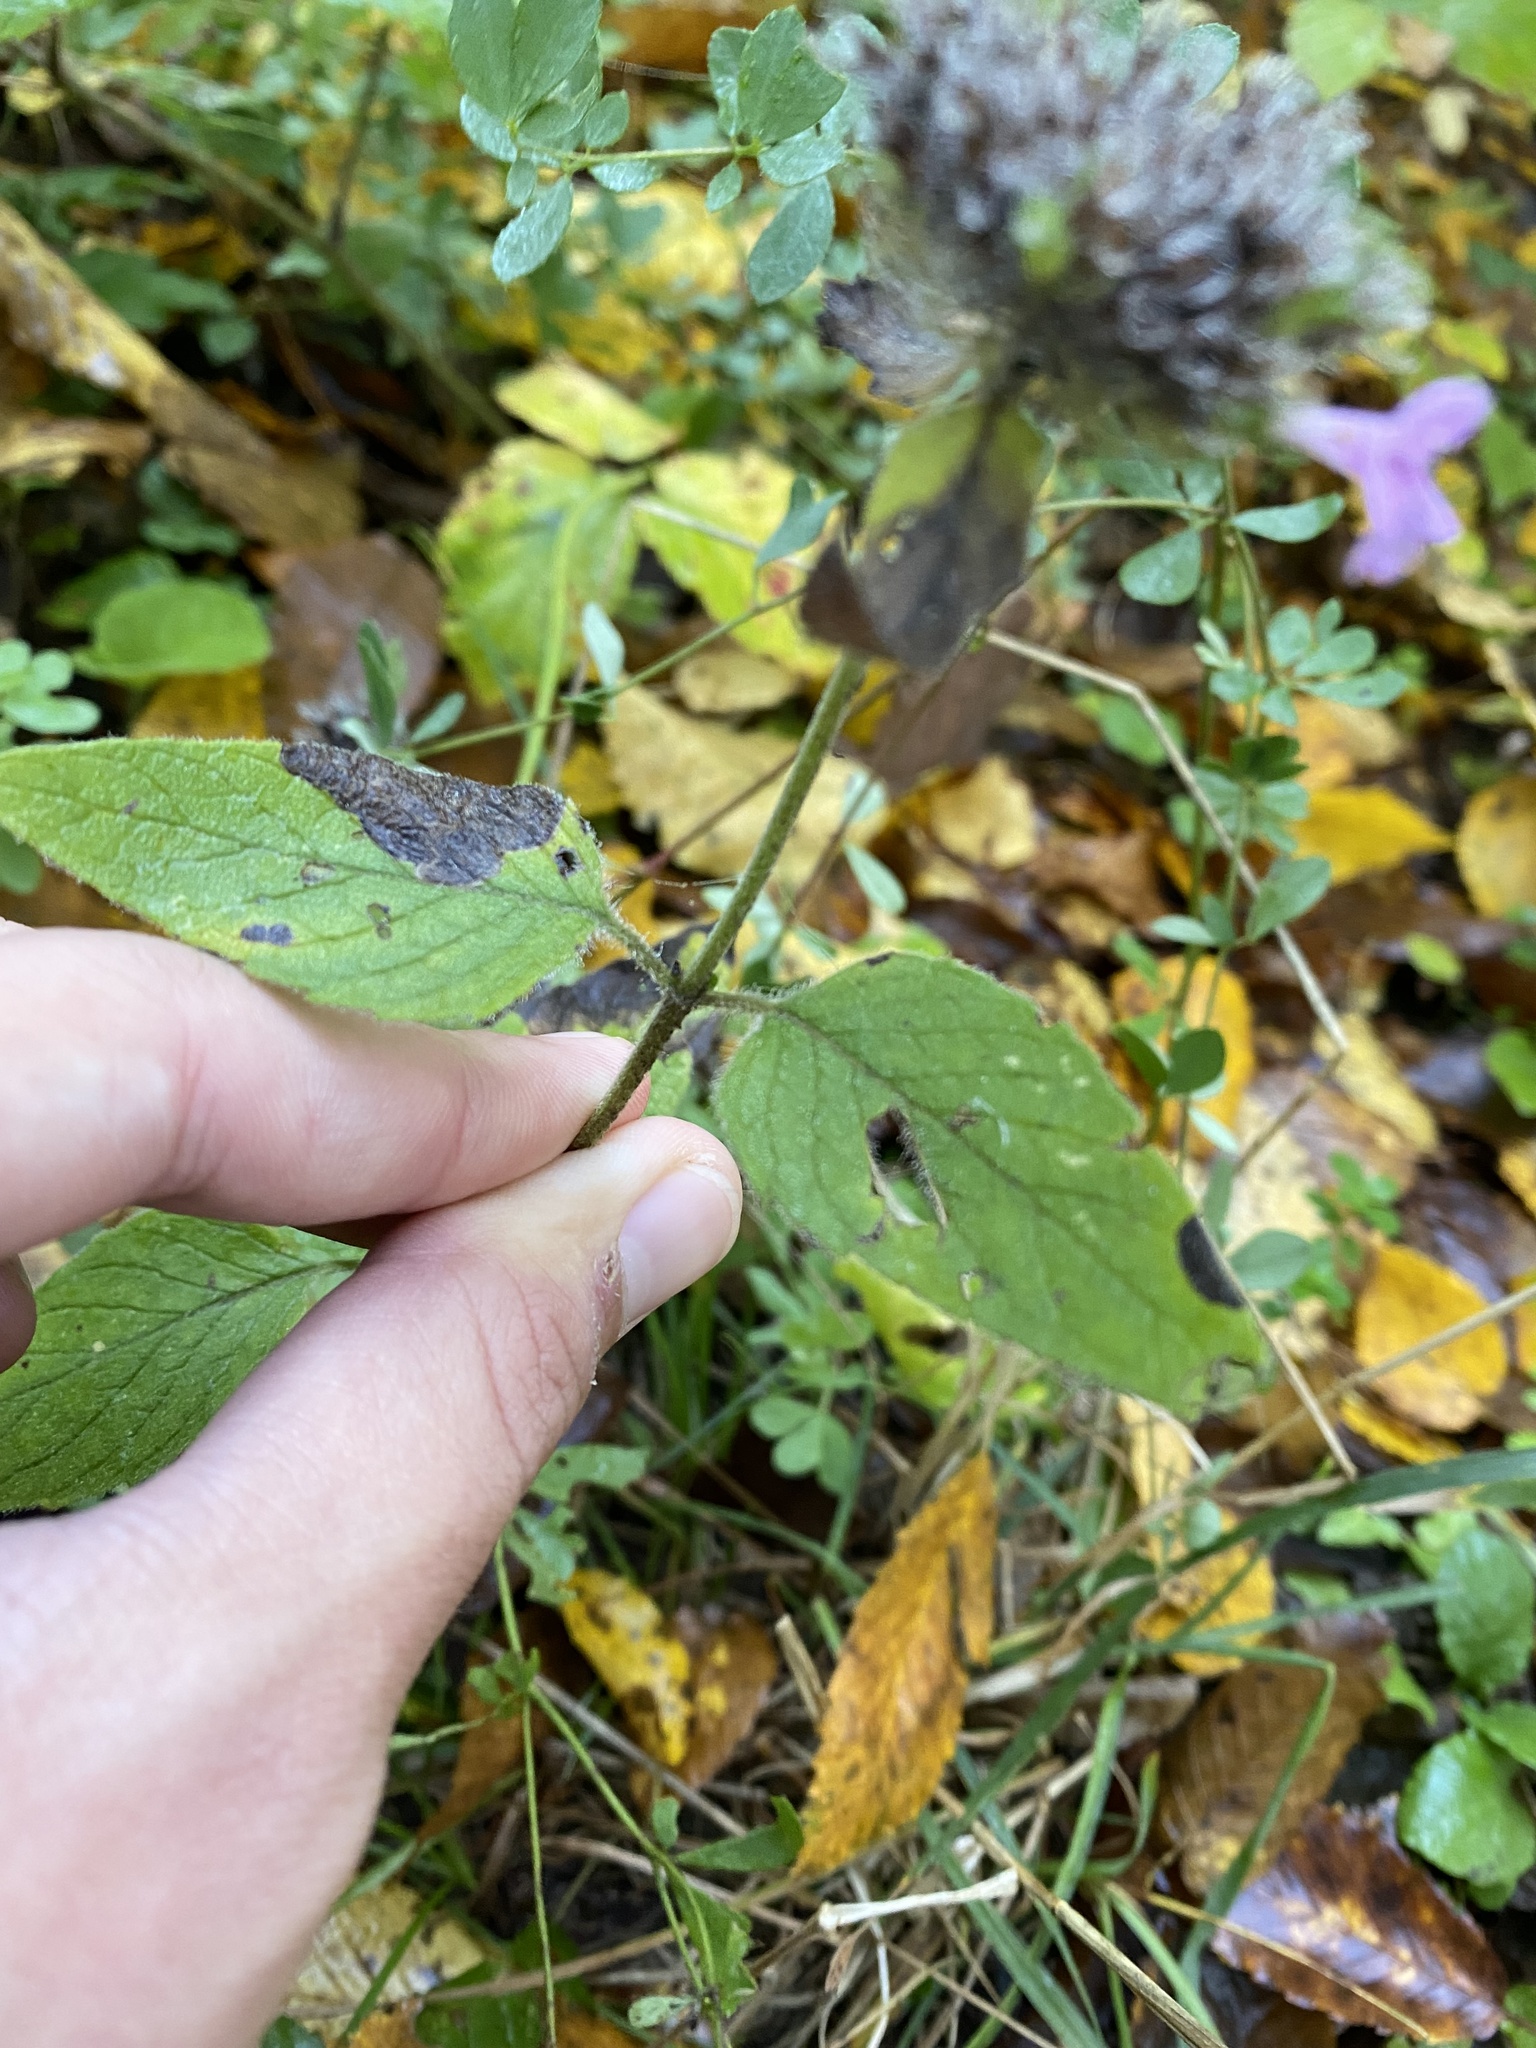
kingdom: Plantae
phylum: Tracheophyta
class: Magnoliopsida
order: Lamiales
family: Lamiaceae
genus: Clinopodium
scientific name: Clinopodium caucasicum
